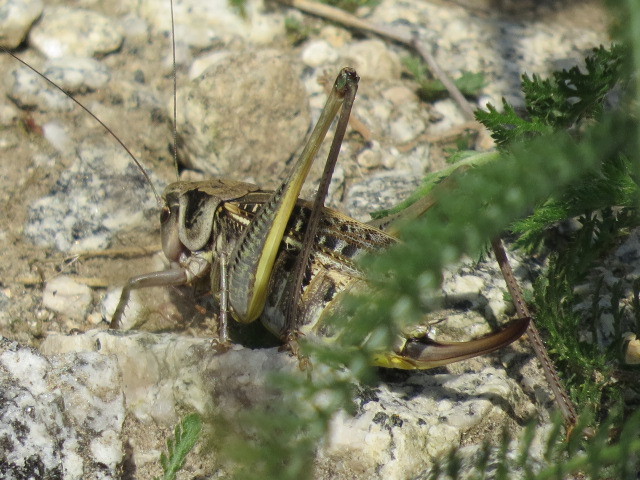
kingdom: Animalia
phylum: Arthropoda
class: Insecta
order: Orthoptera
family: Tettigoniidae
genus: Decticus
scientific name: Decticus verrucivorus
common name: Wart-biter
